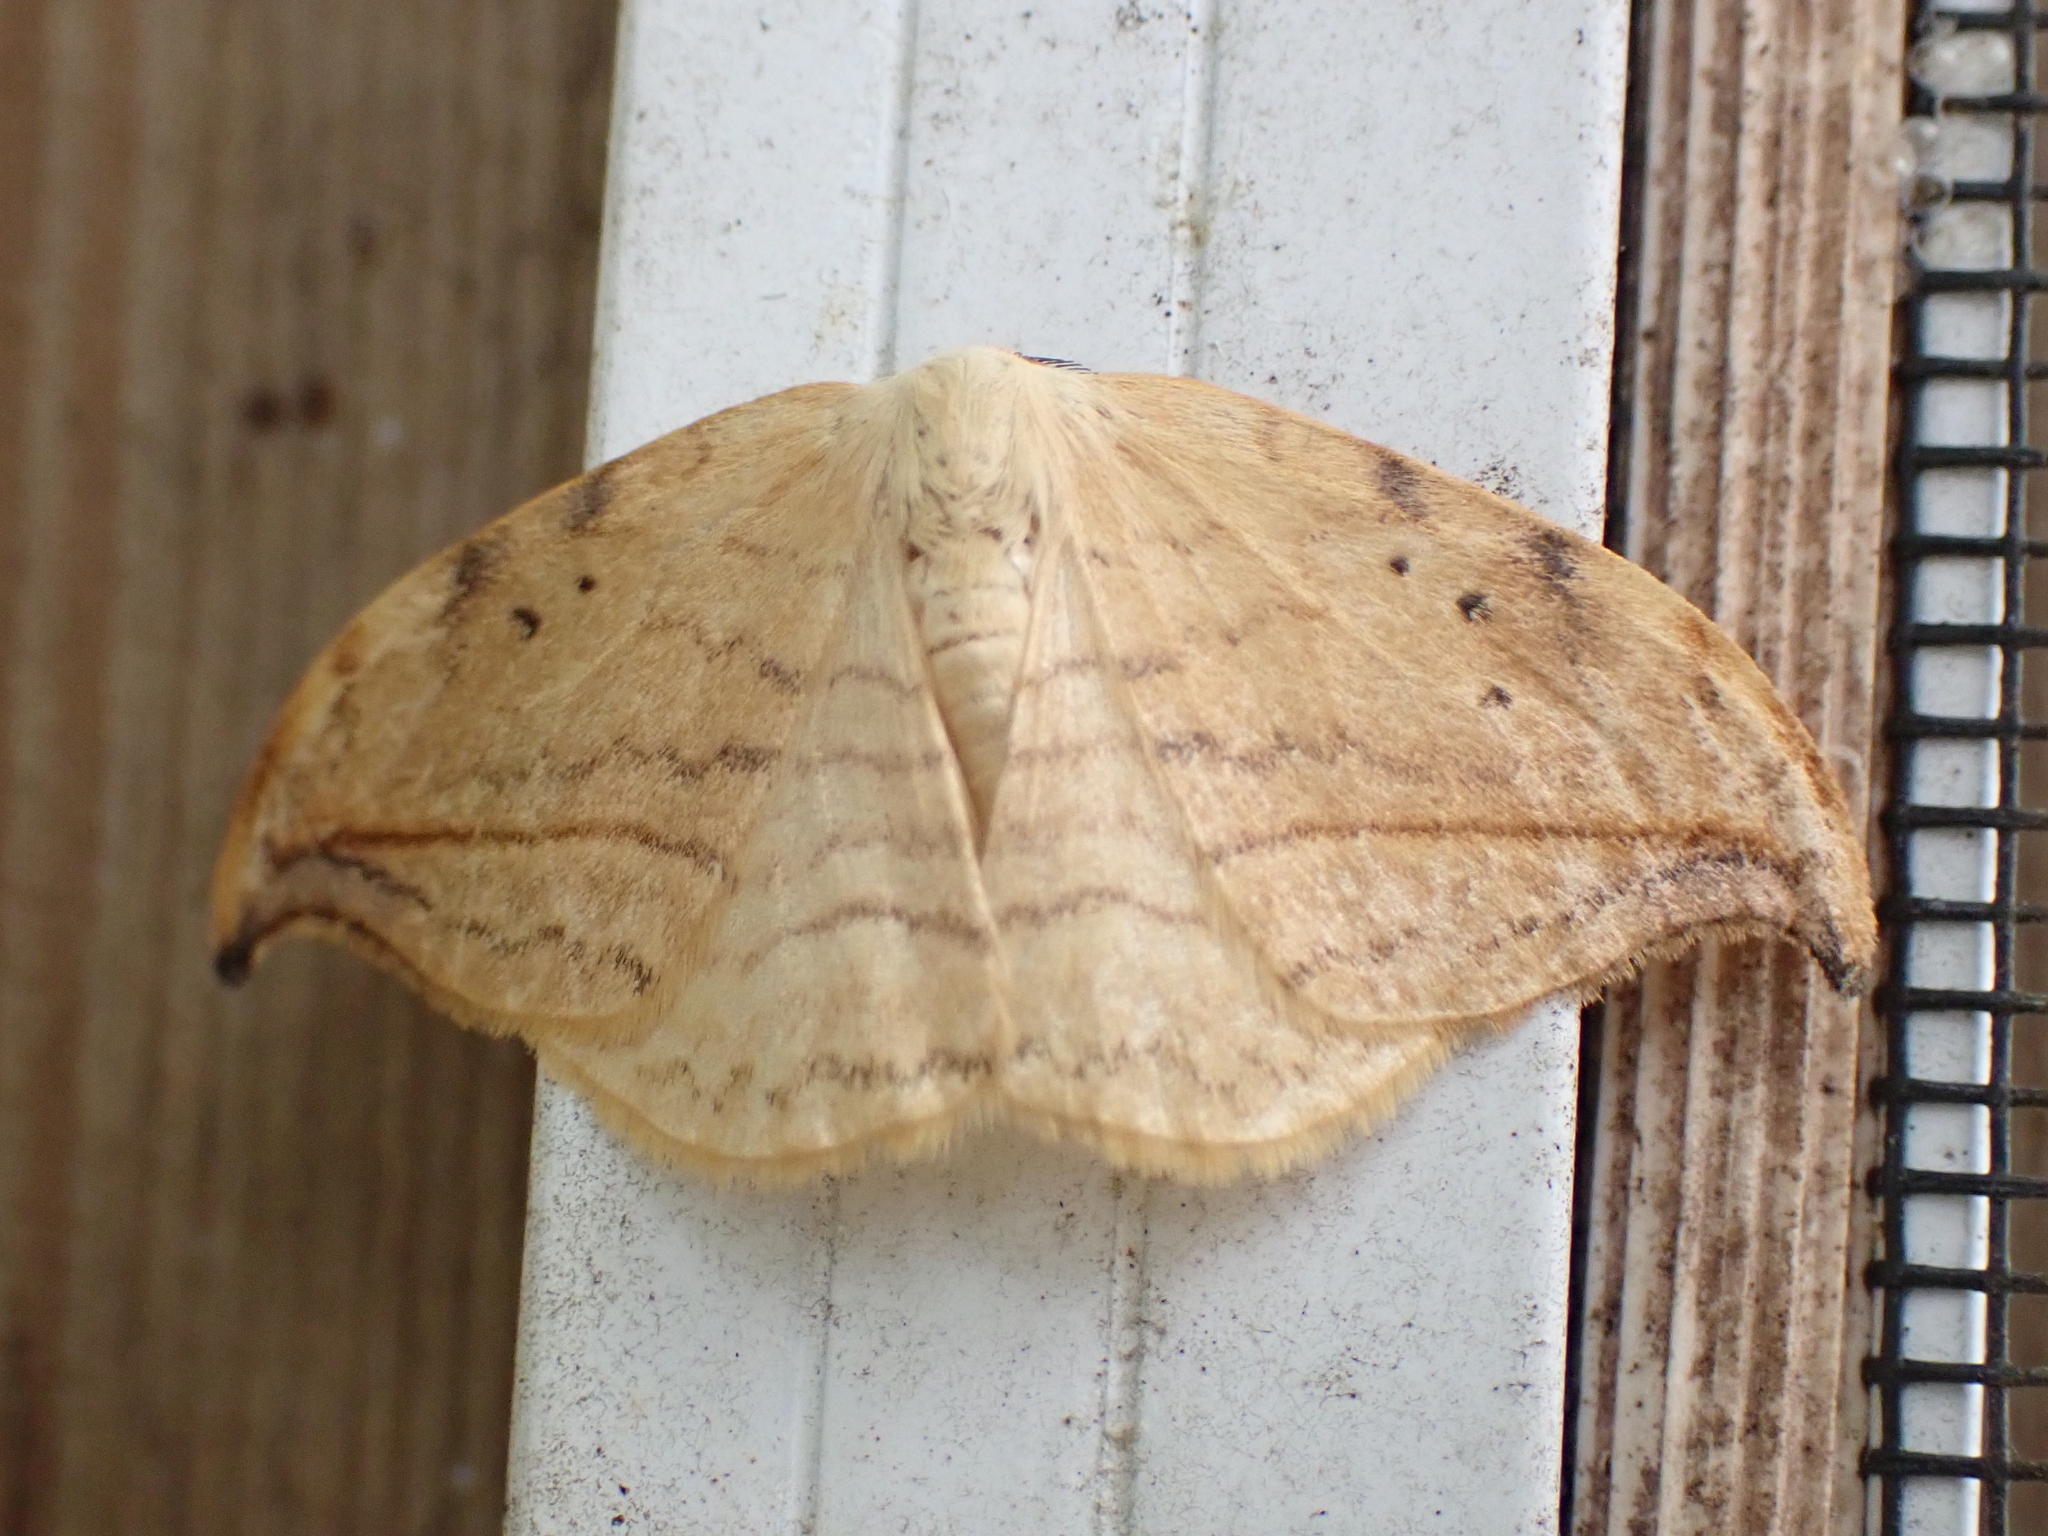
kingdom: Animalia
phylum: Arthropoda
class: Insecta
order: Lepidoptera
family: Drepanidae
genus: Drepana
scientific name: Drepana arcuata
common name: Arched hooktip moth
